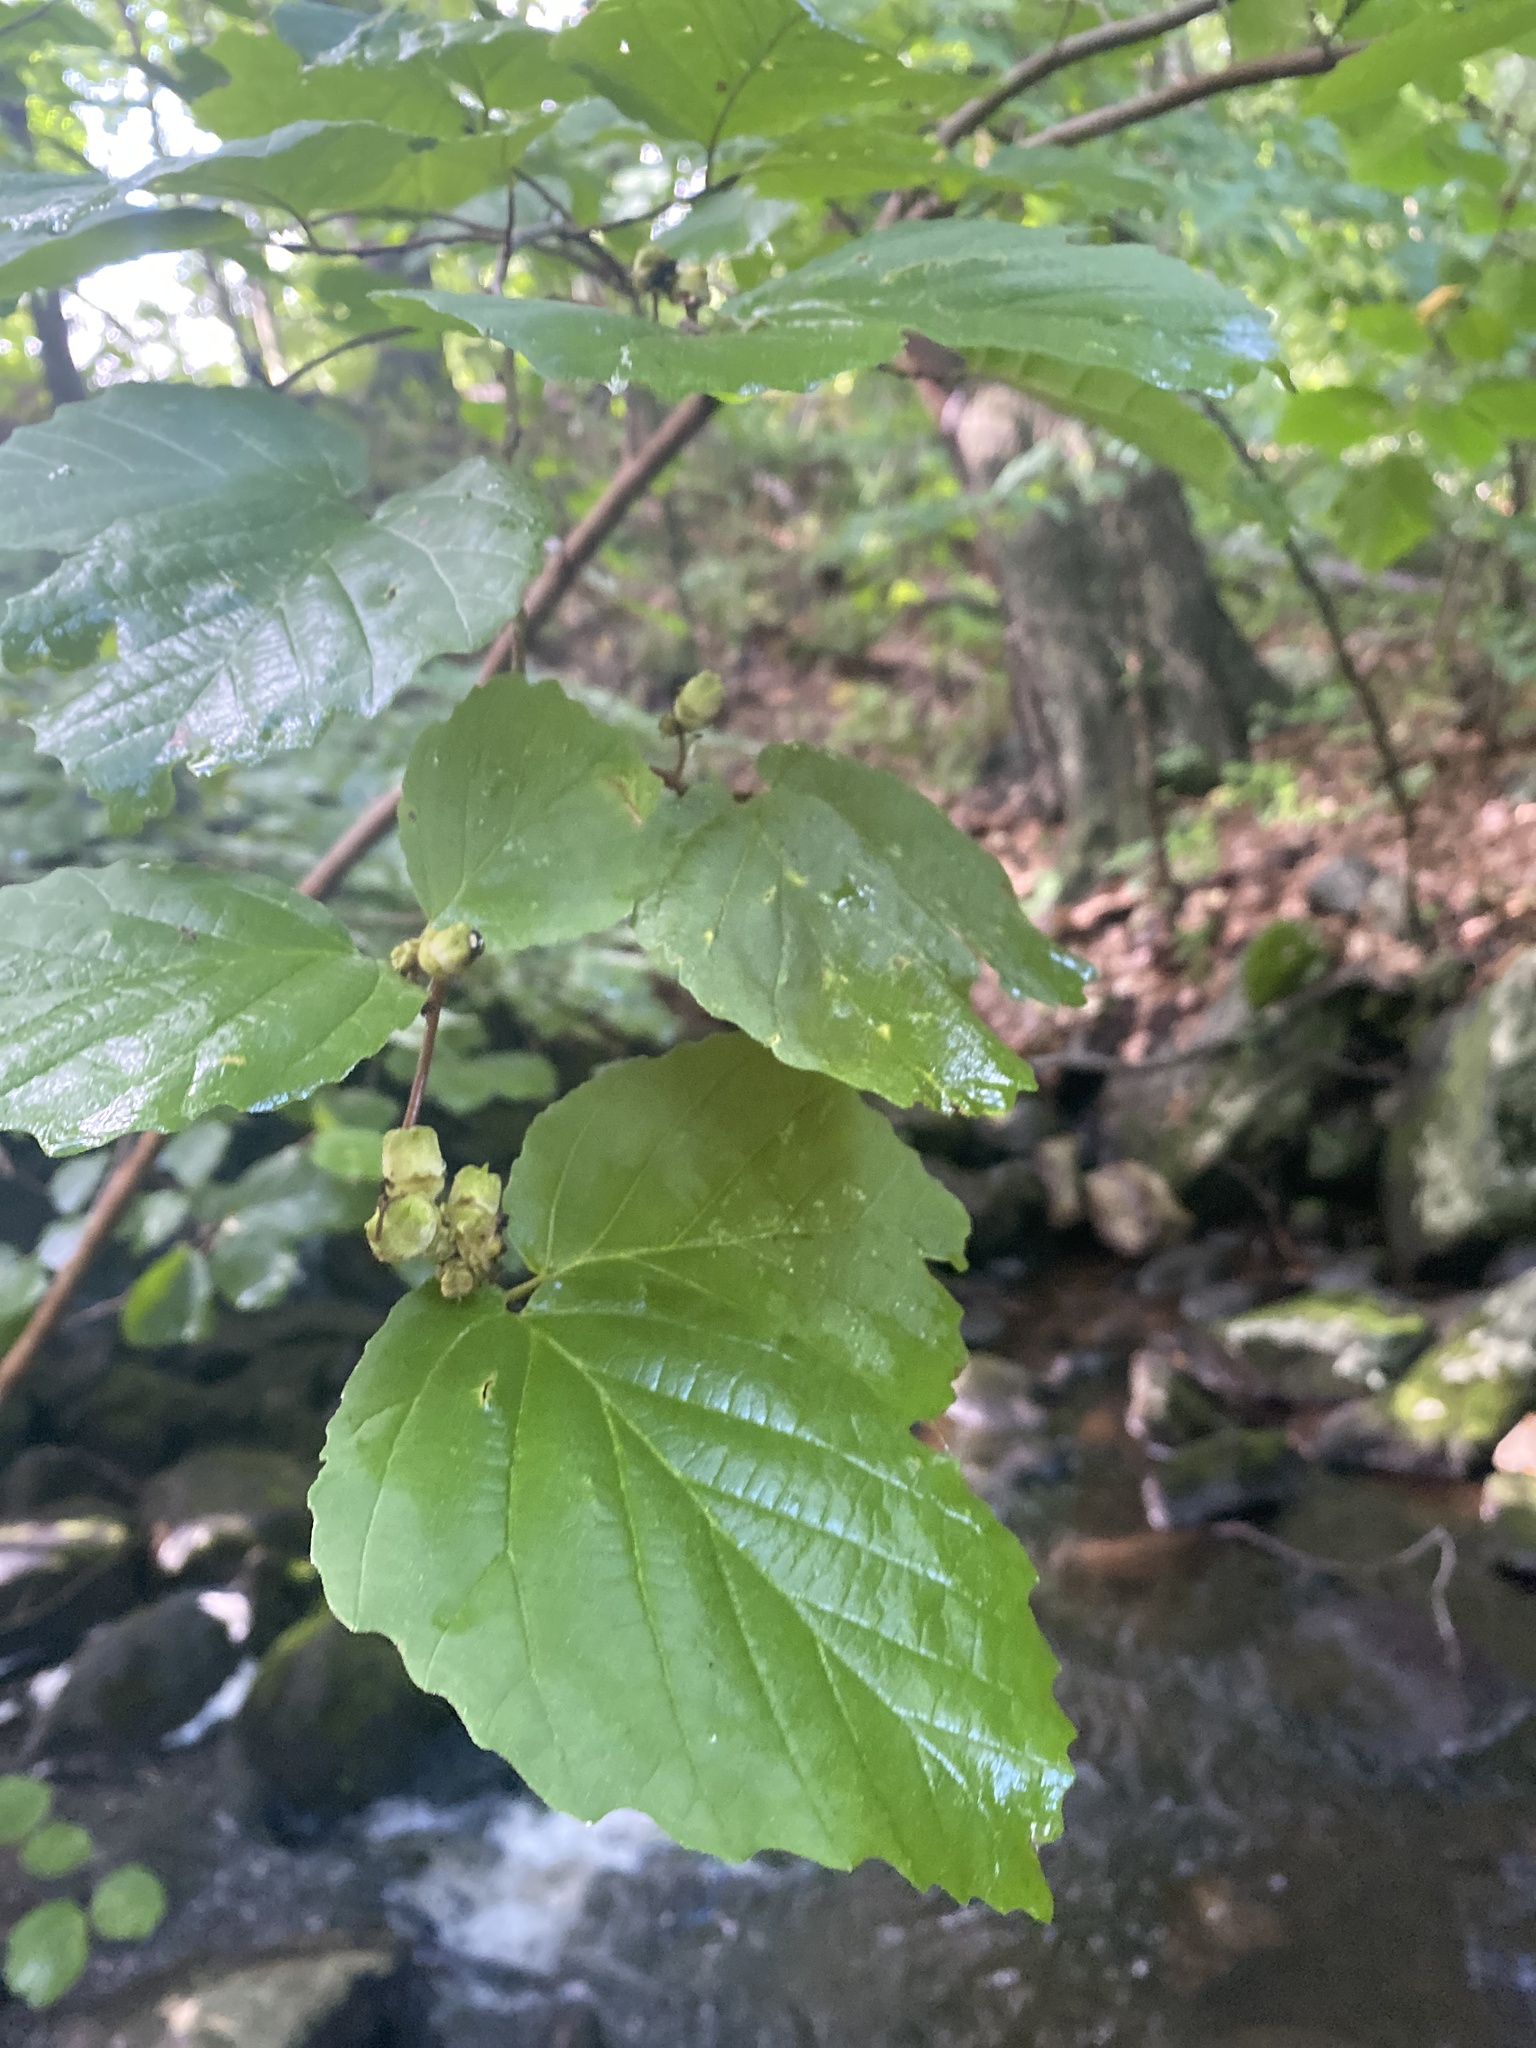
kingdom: Plantae
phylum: Tracheophyta
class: Magnoliopsida
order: Saxifragales
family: Hamamelidaceae
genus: Hamamelis
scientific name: Hamamelis virginiana
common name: Witch-hazel
